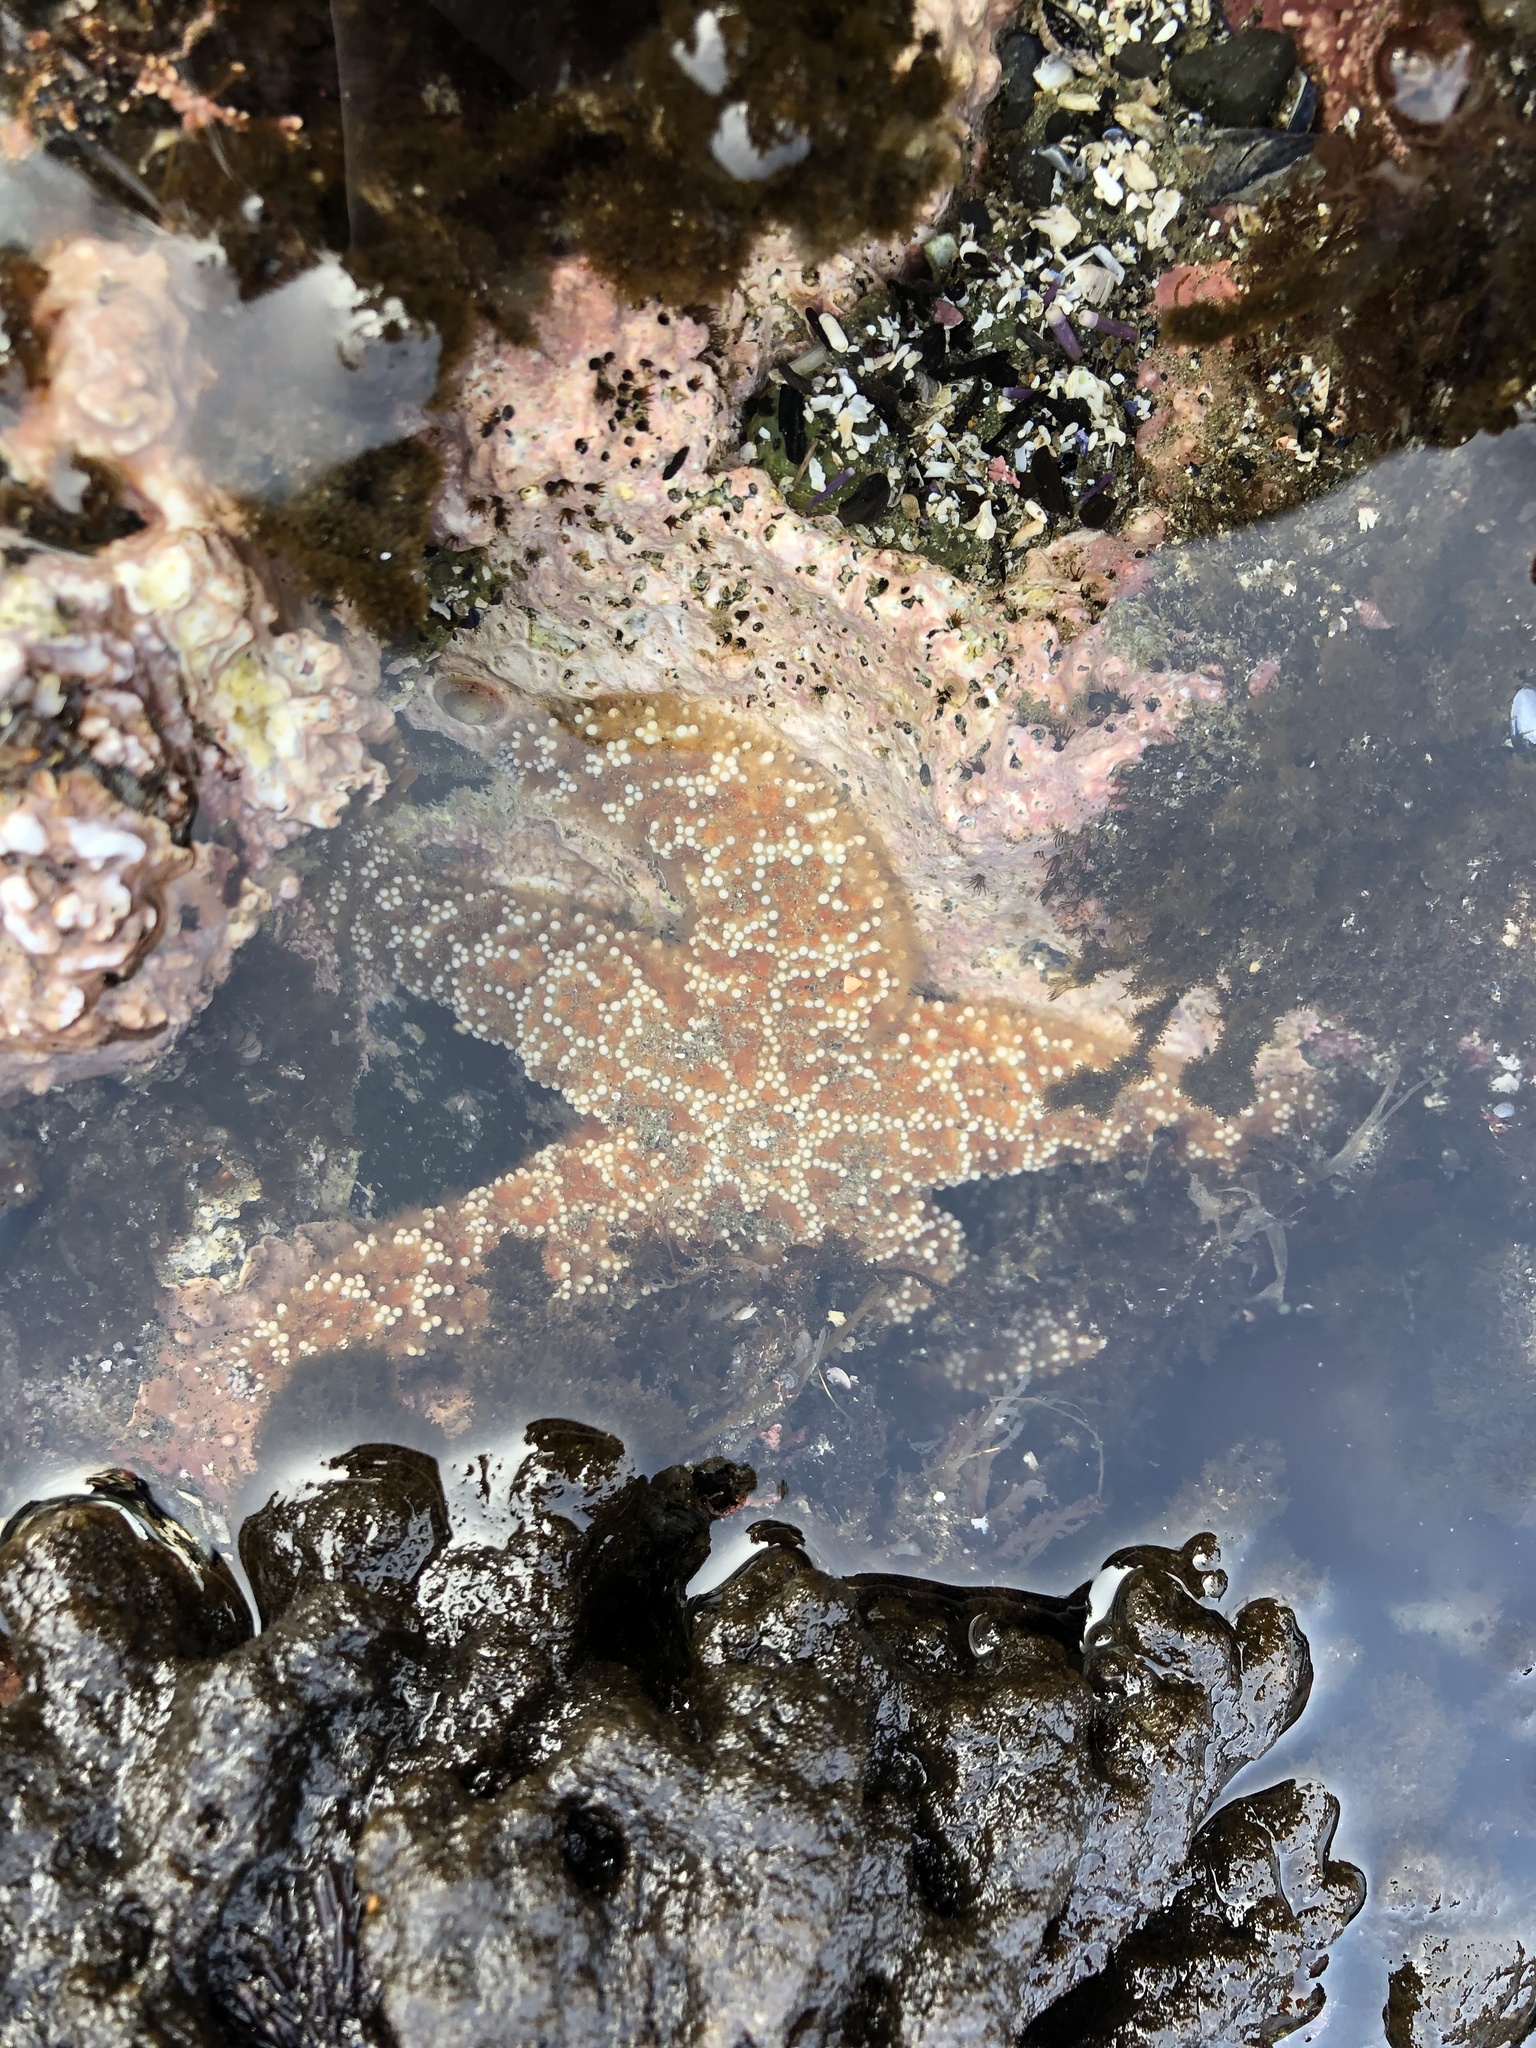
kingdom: Animalia
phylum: Echinodermata
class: Asteroidea
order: Forcipulatida
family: Asteriidae
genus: Pisaster
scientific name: Pisaster ochraceus
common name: Ochre stars
